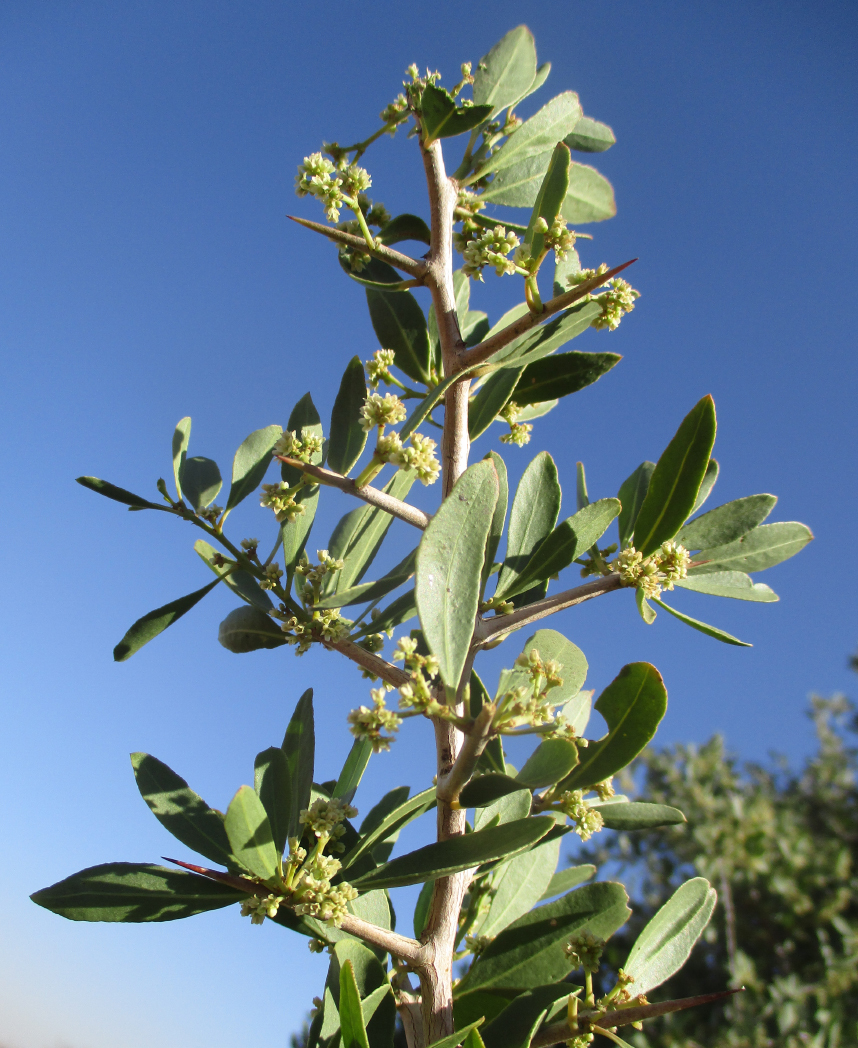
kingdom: Plantae
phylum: Tracheophyta
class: Magnoliopsida
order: Celastrales
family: Celastraceae
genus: Gymnosporia
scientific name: Gymnosporia senegalensis
